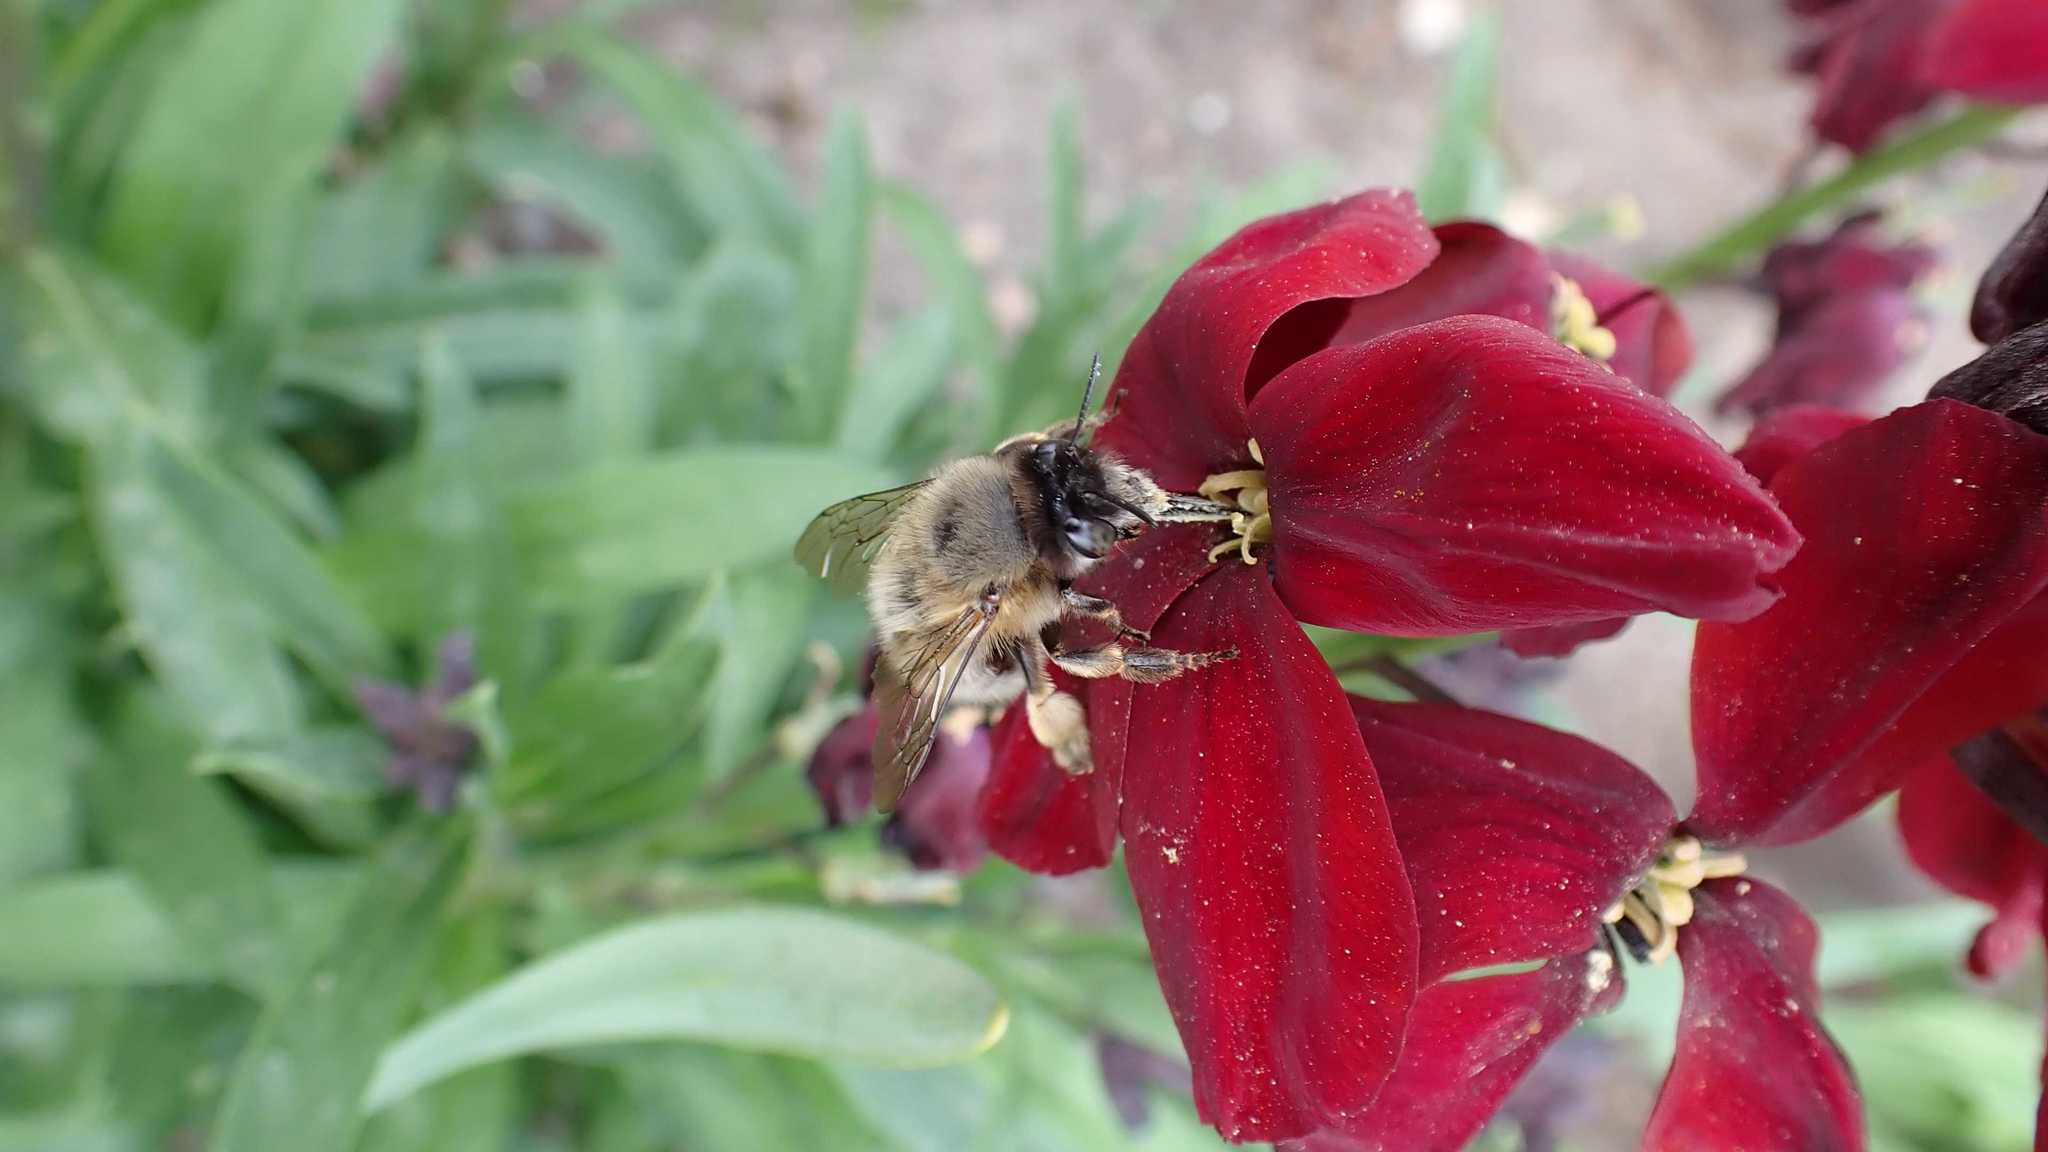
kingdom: Animalia
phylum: Arthropoda
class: Insecta
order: Hymenoptera
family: Apidae
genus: Anthophora
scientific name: Anthophora plumipes
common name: Hairy-footed flower bee
